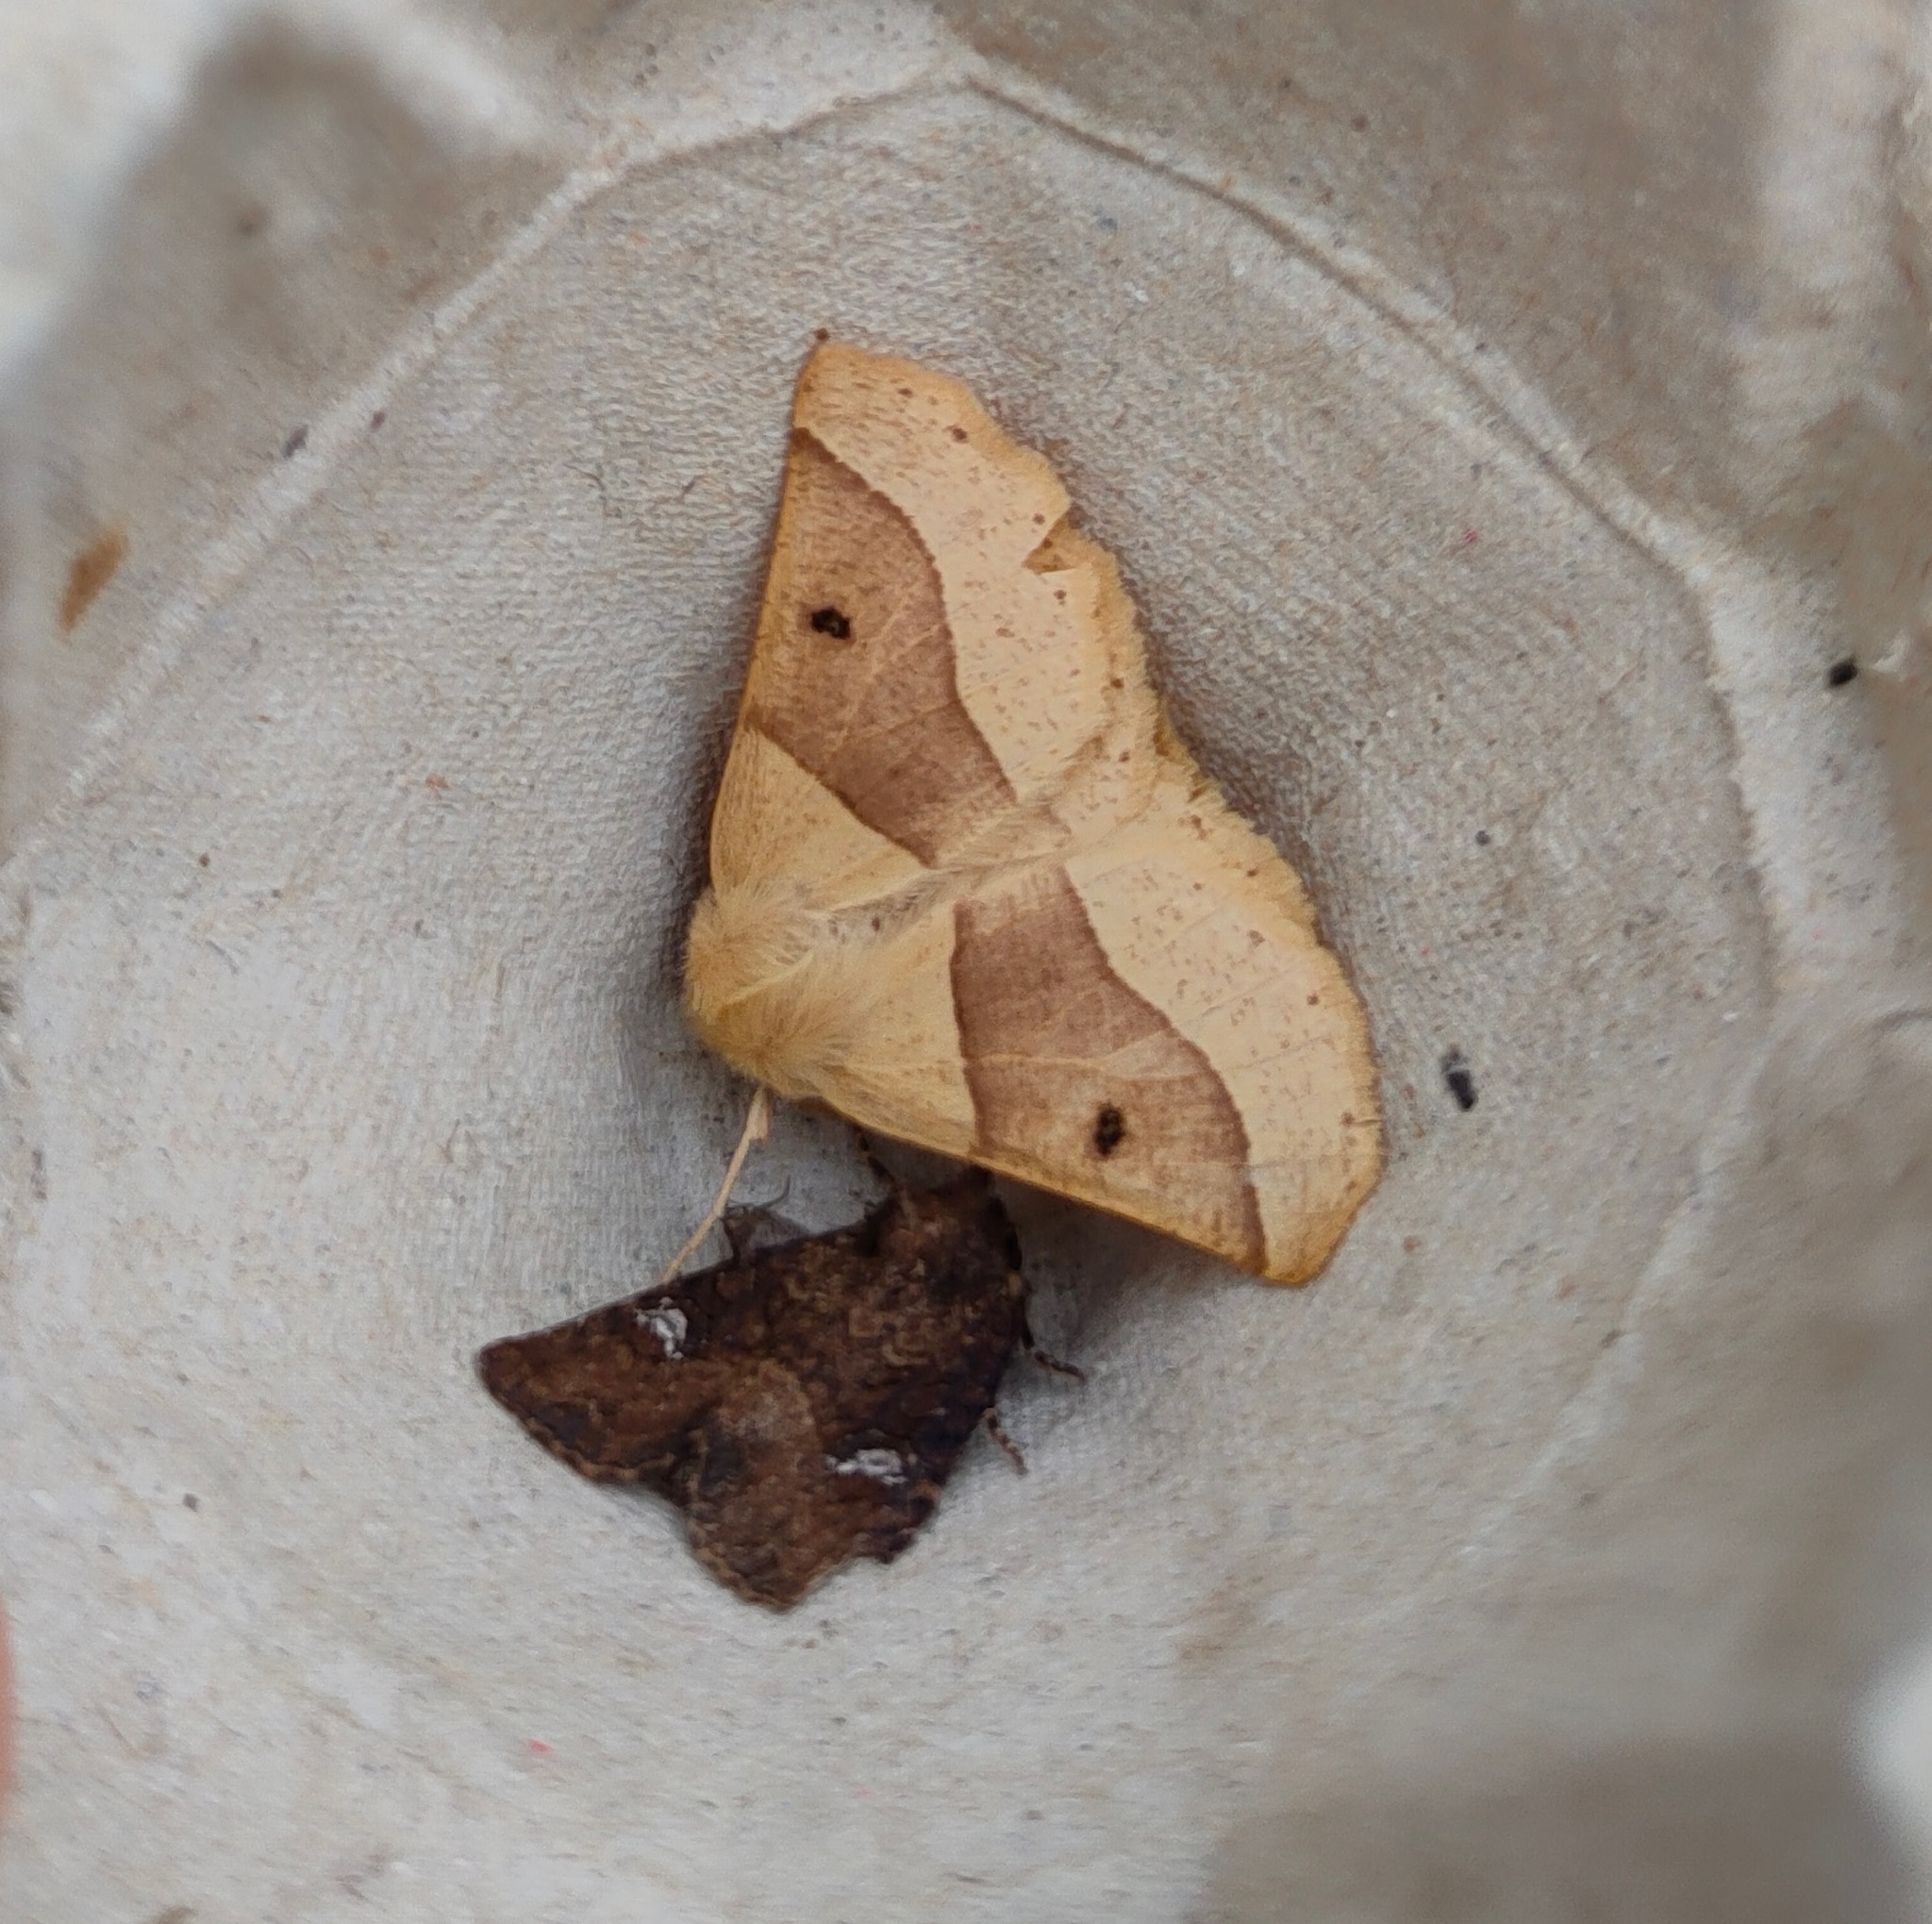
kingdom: Animalia
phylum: Arthropoda
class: Insecta
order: Lepidoptera
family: Geometridae
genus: Crocallis
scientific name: Crocallis elinguaria
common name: Scalloped oak
